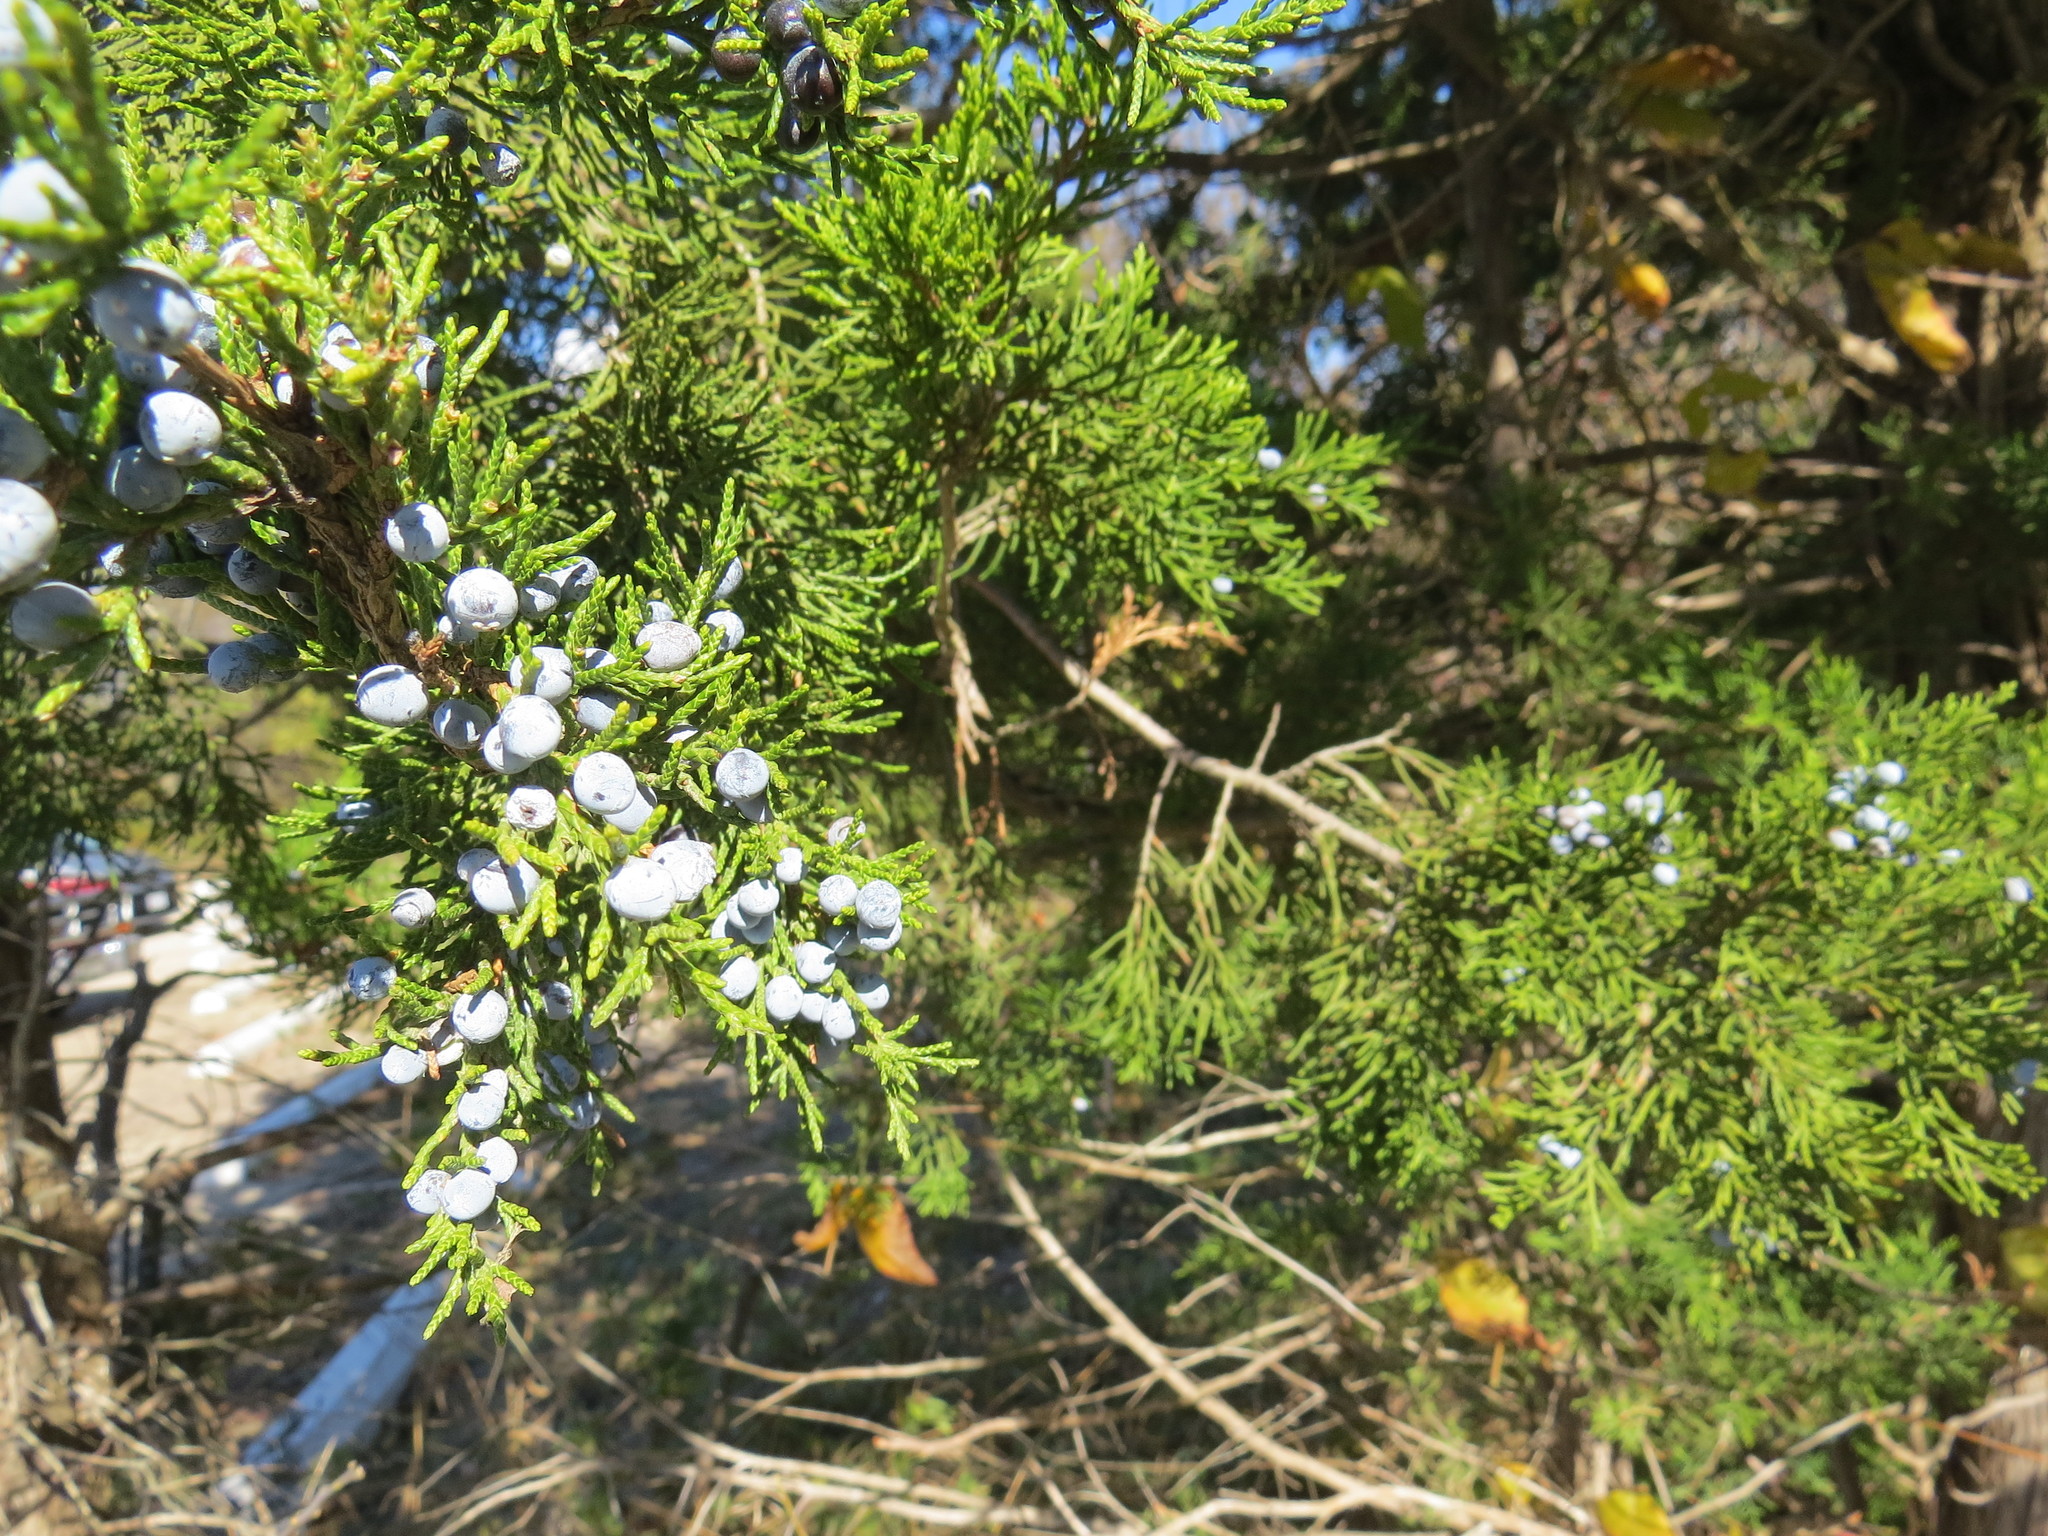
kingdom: Plantae
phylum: Tracheophyta
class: Pinopsida
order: Pinales
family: Cupressaceae
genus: Juniperus
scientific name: Juniperus virginiana
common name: Red juniper
